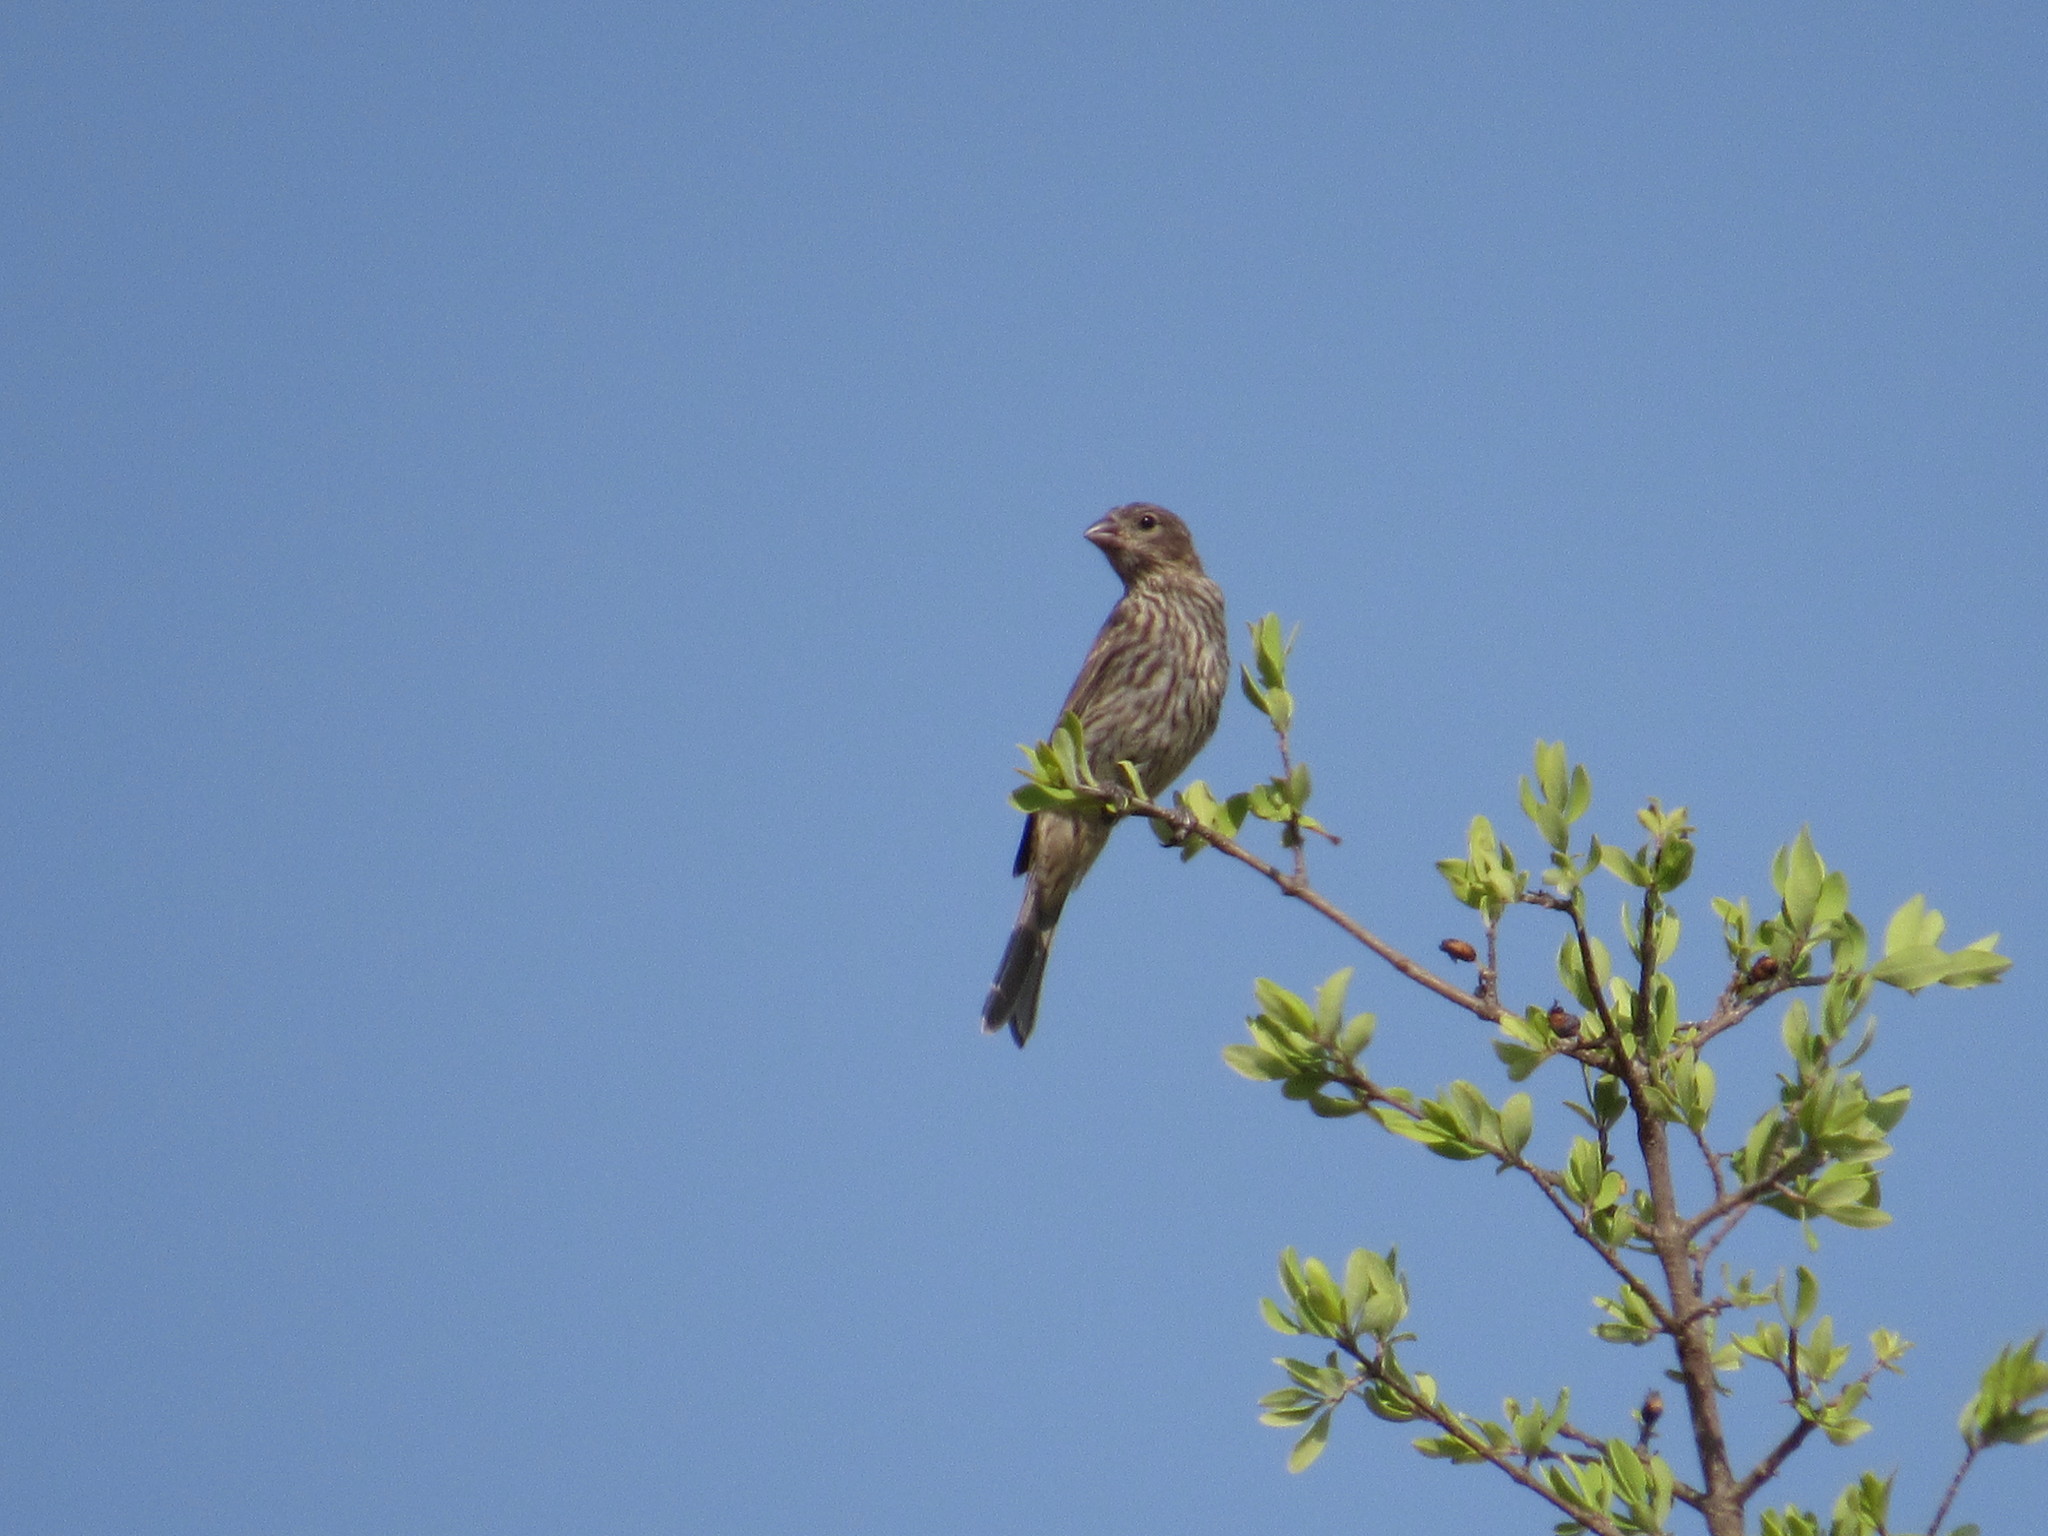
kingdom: Animalia
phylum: Chordata
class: Aves
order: Passeriformes
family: Mimidae
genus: Mimus
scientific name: Mimus polyglottos
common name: Northern mockingbird
